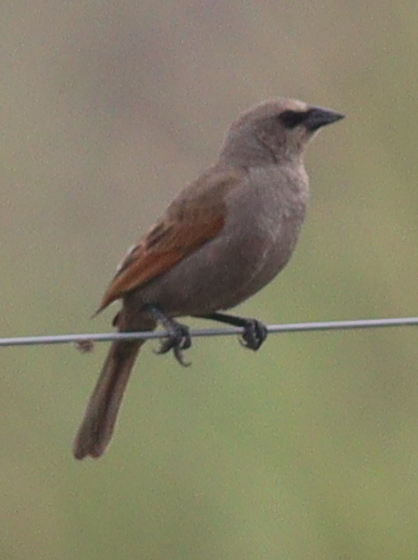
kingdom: Animalia
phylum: Chordata
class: Aves
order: Passeriformes
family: Icteridae
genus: Agelaioides
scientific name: Agelaioides badius
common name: Baywing
